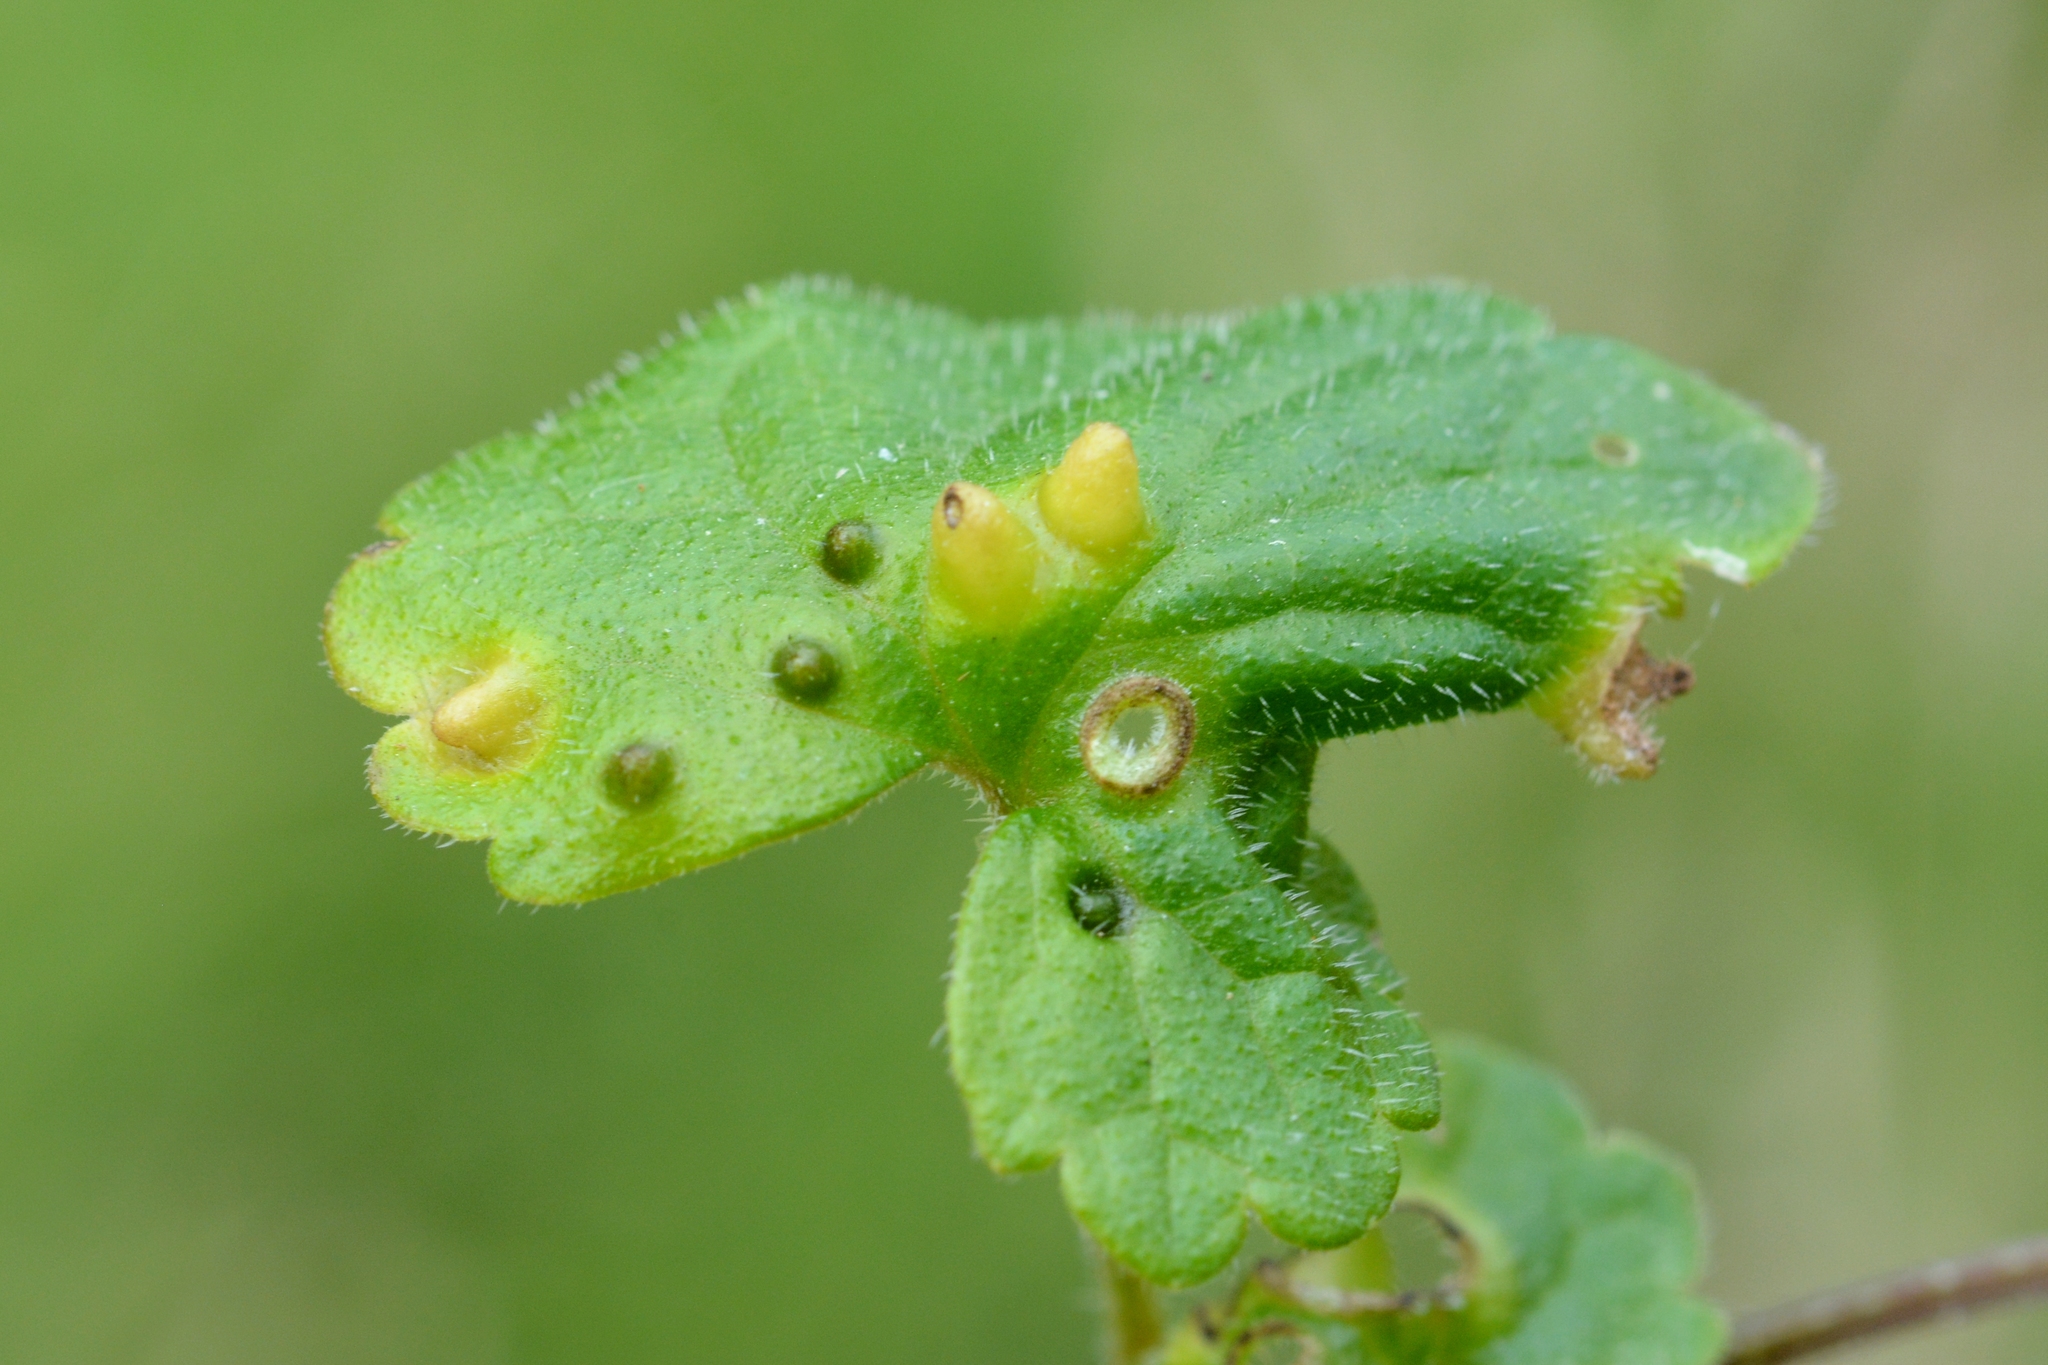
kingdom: Animalia
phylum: Arthropoda
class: Insecta
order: Diptera
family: Cecidomyiidae
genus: Rondaniola
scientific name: Rondaniola bursaria
